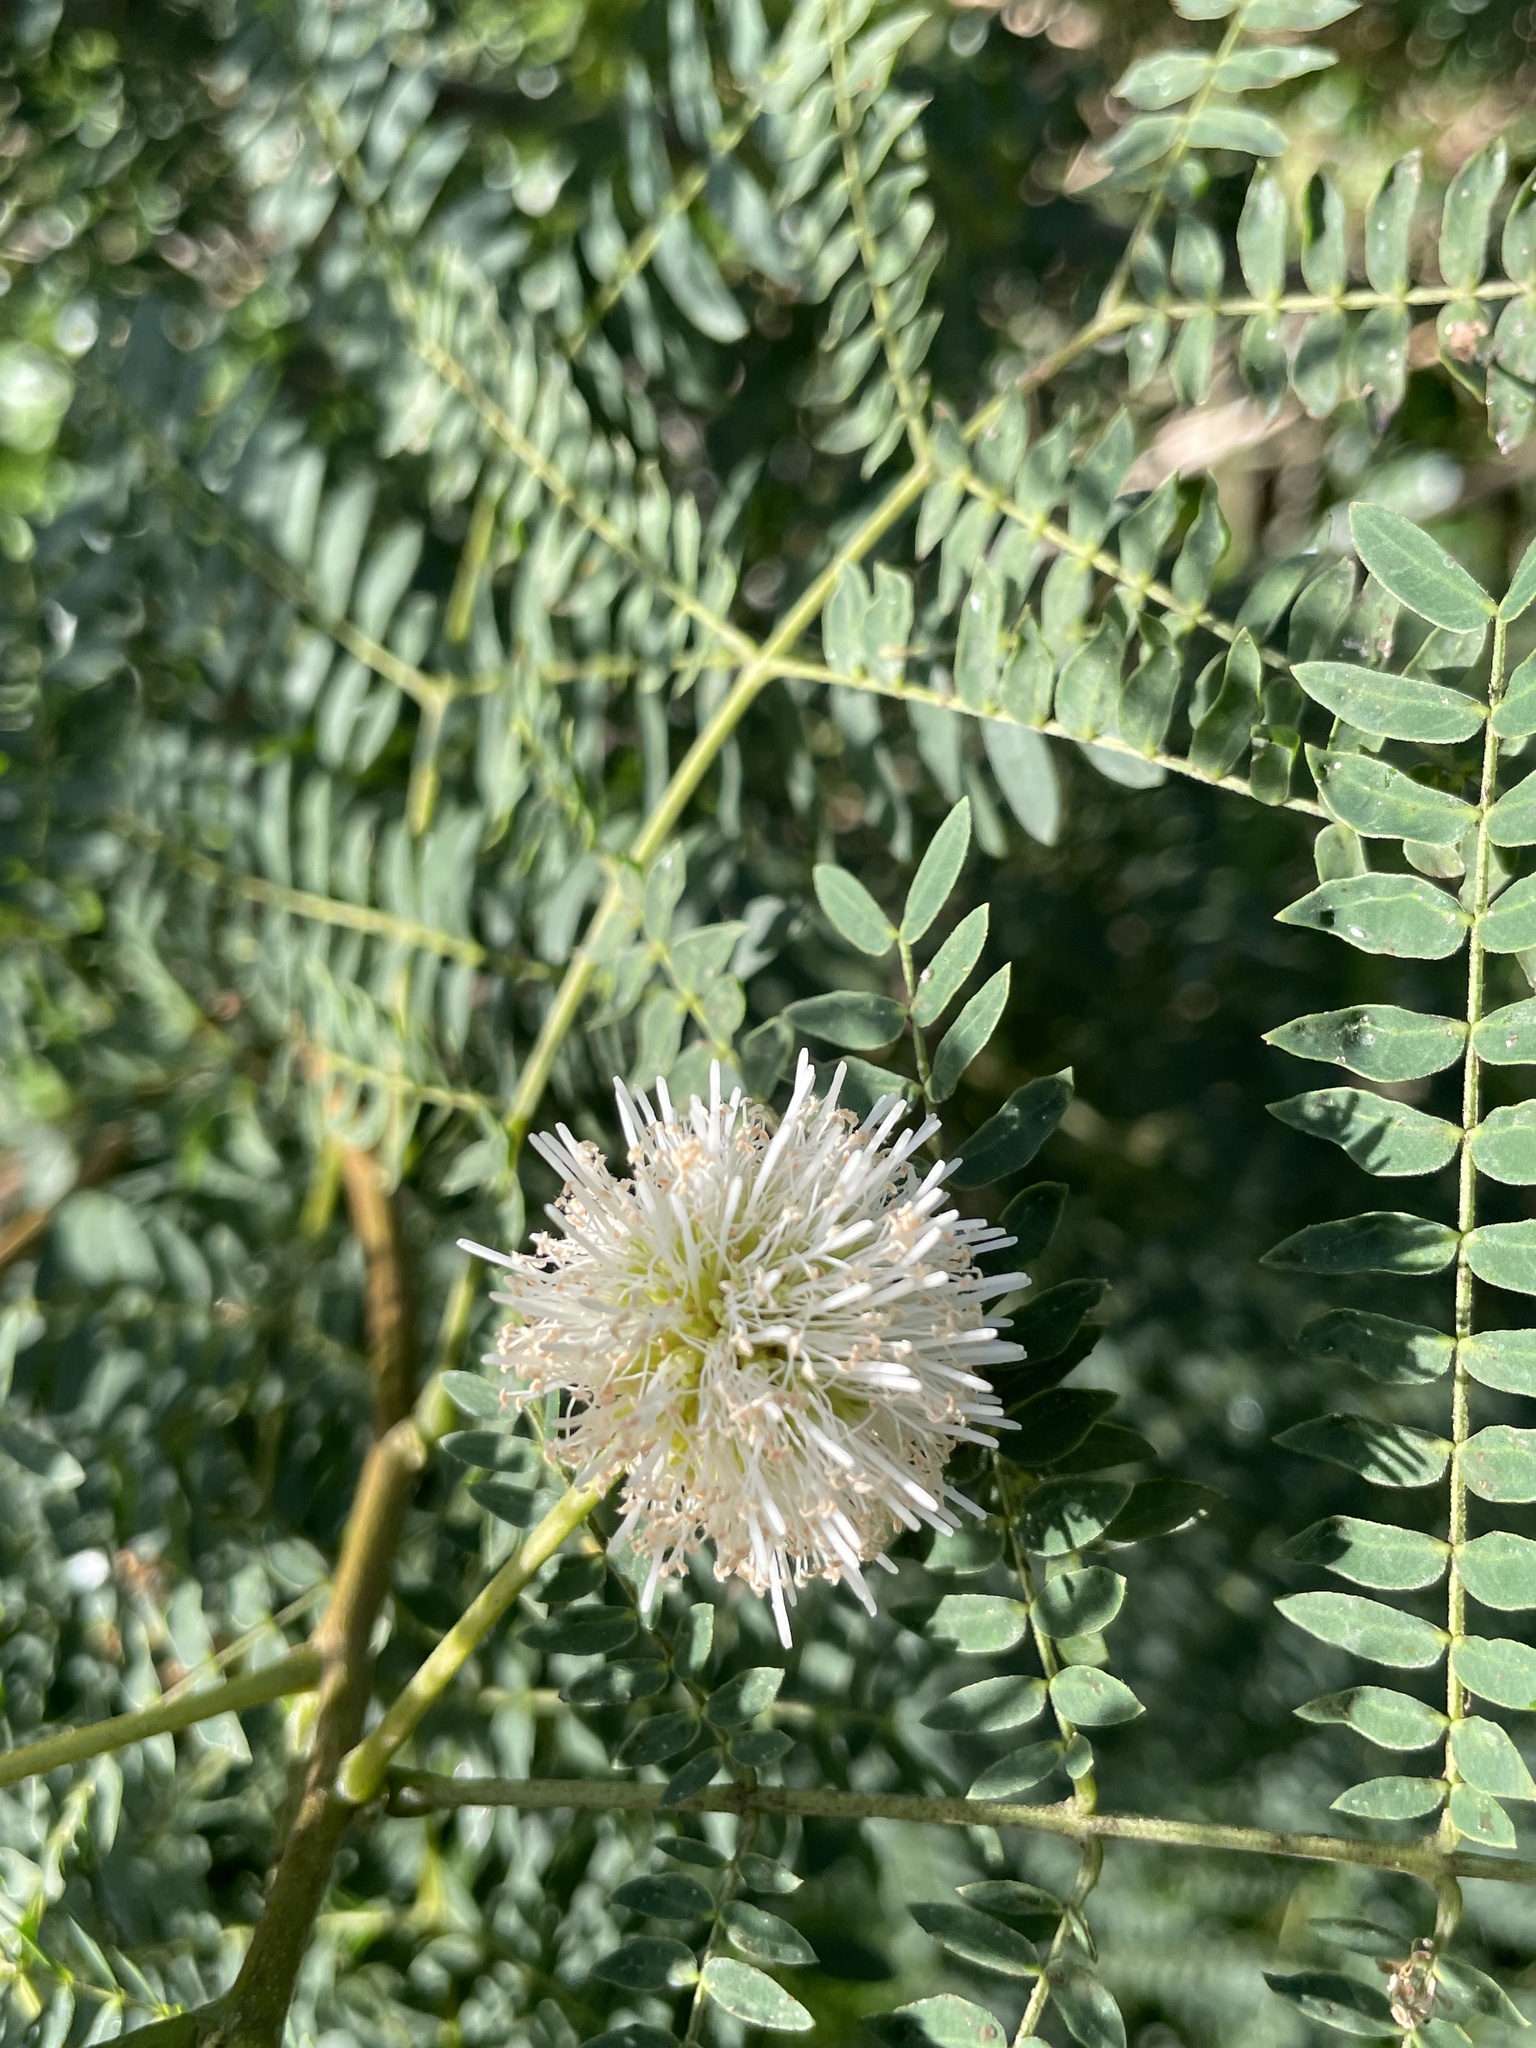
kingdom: Plantae
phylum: Tracheophyta
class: Magnoliopsida
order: Fabales
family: Fabaceae
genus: Leucaena
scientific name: Leucaena leucocephala
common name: White leadtree
